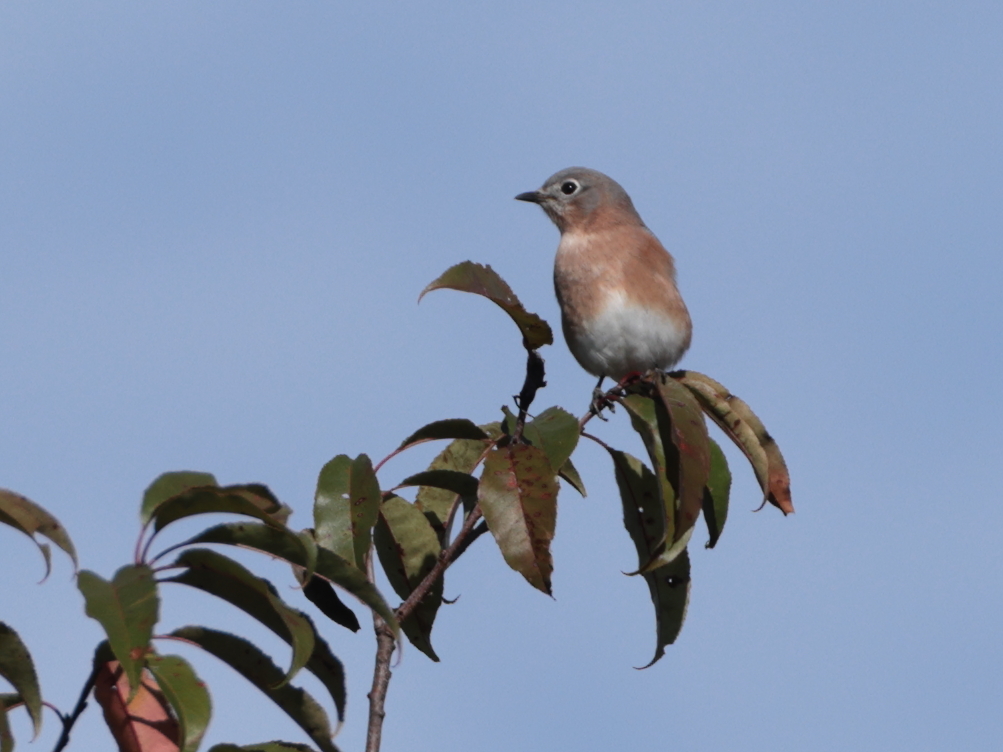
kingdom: Animalia
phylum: Chordata
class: Aves
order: Passeriformes
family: Turdidae
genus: Sialia
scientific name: Sialia sialis
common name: Eastern bluebird
